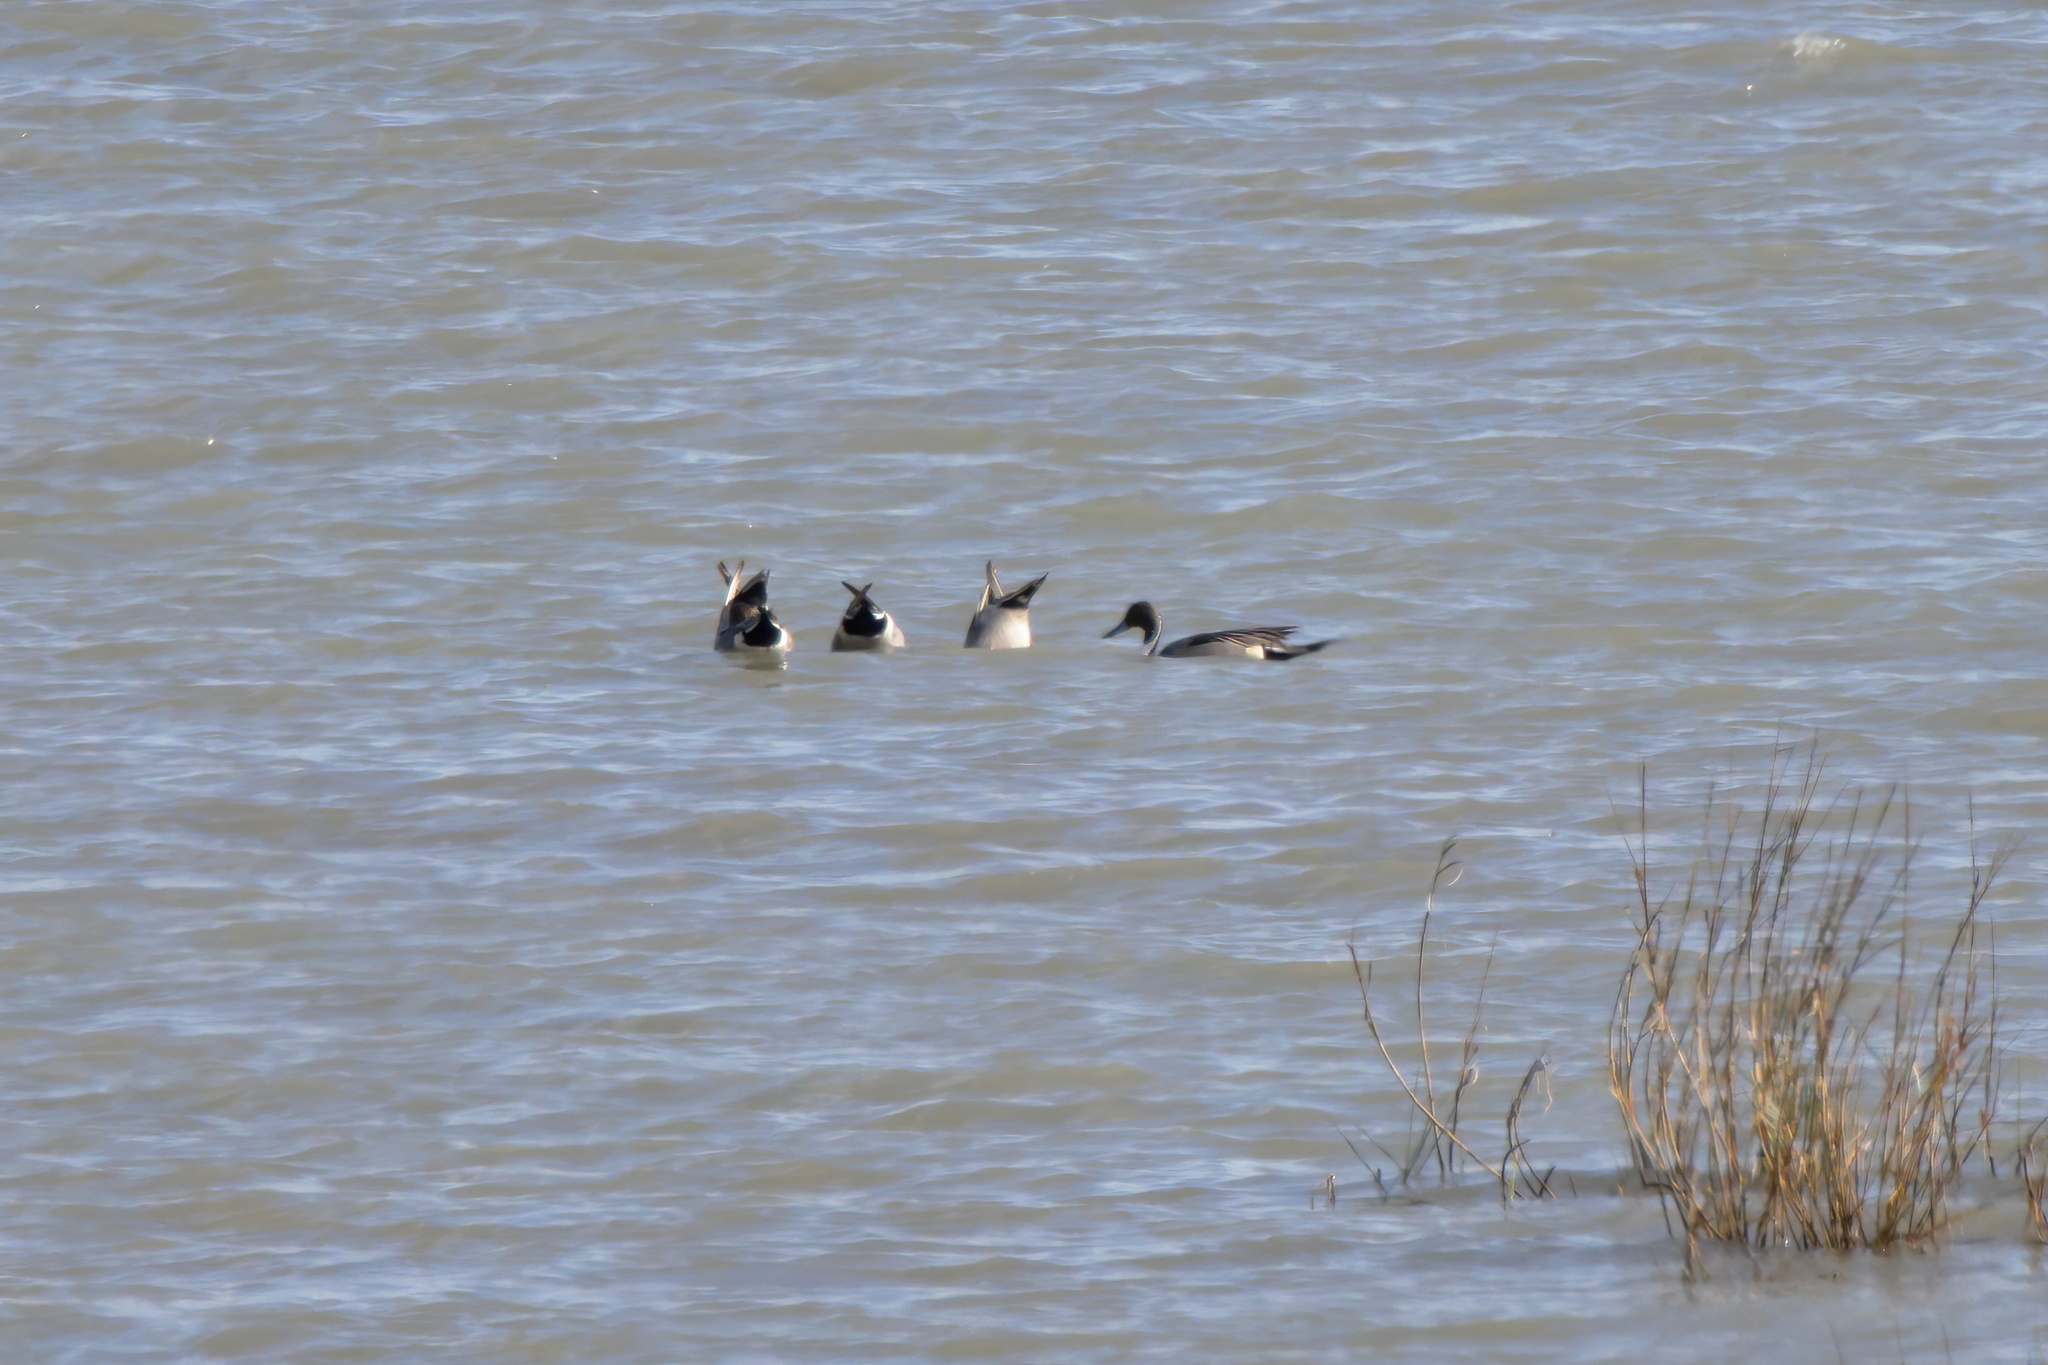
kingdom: Animalia
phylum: Chordata
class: Aves
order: Anseriformes
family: Anatidae
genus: Anas
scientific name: Anas acuta
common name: Northern pintail
